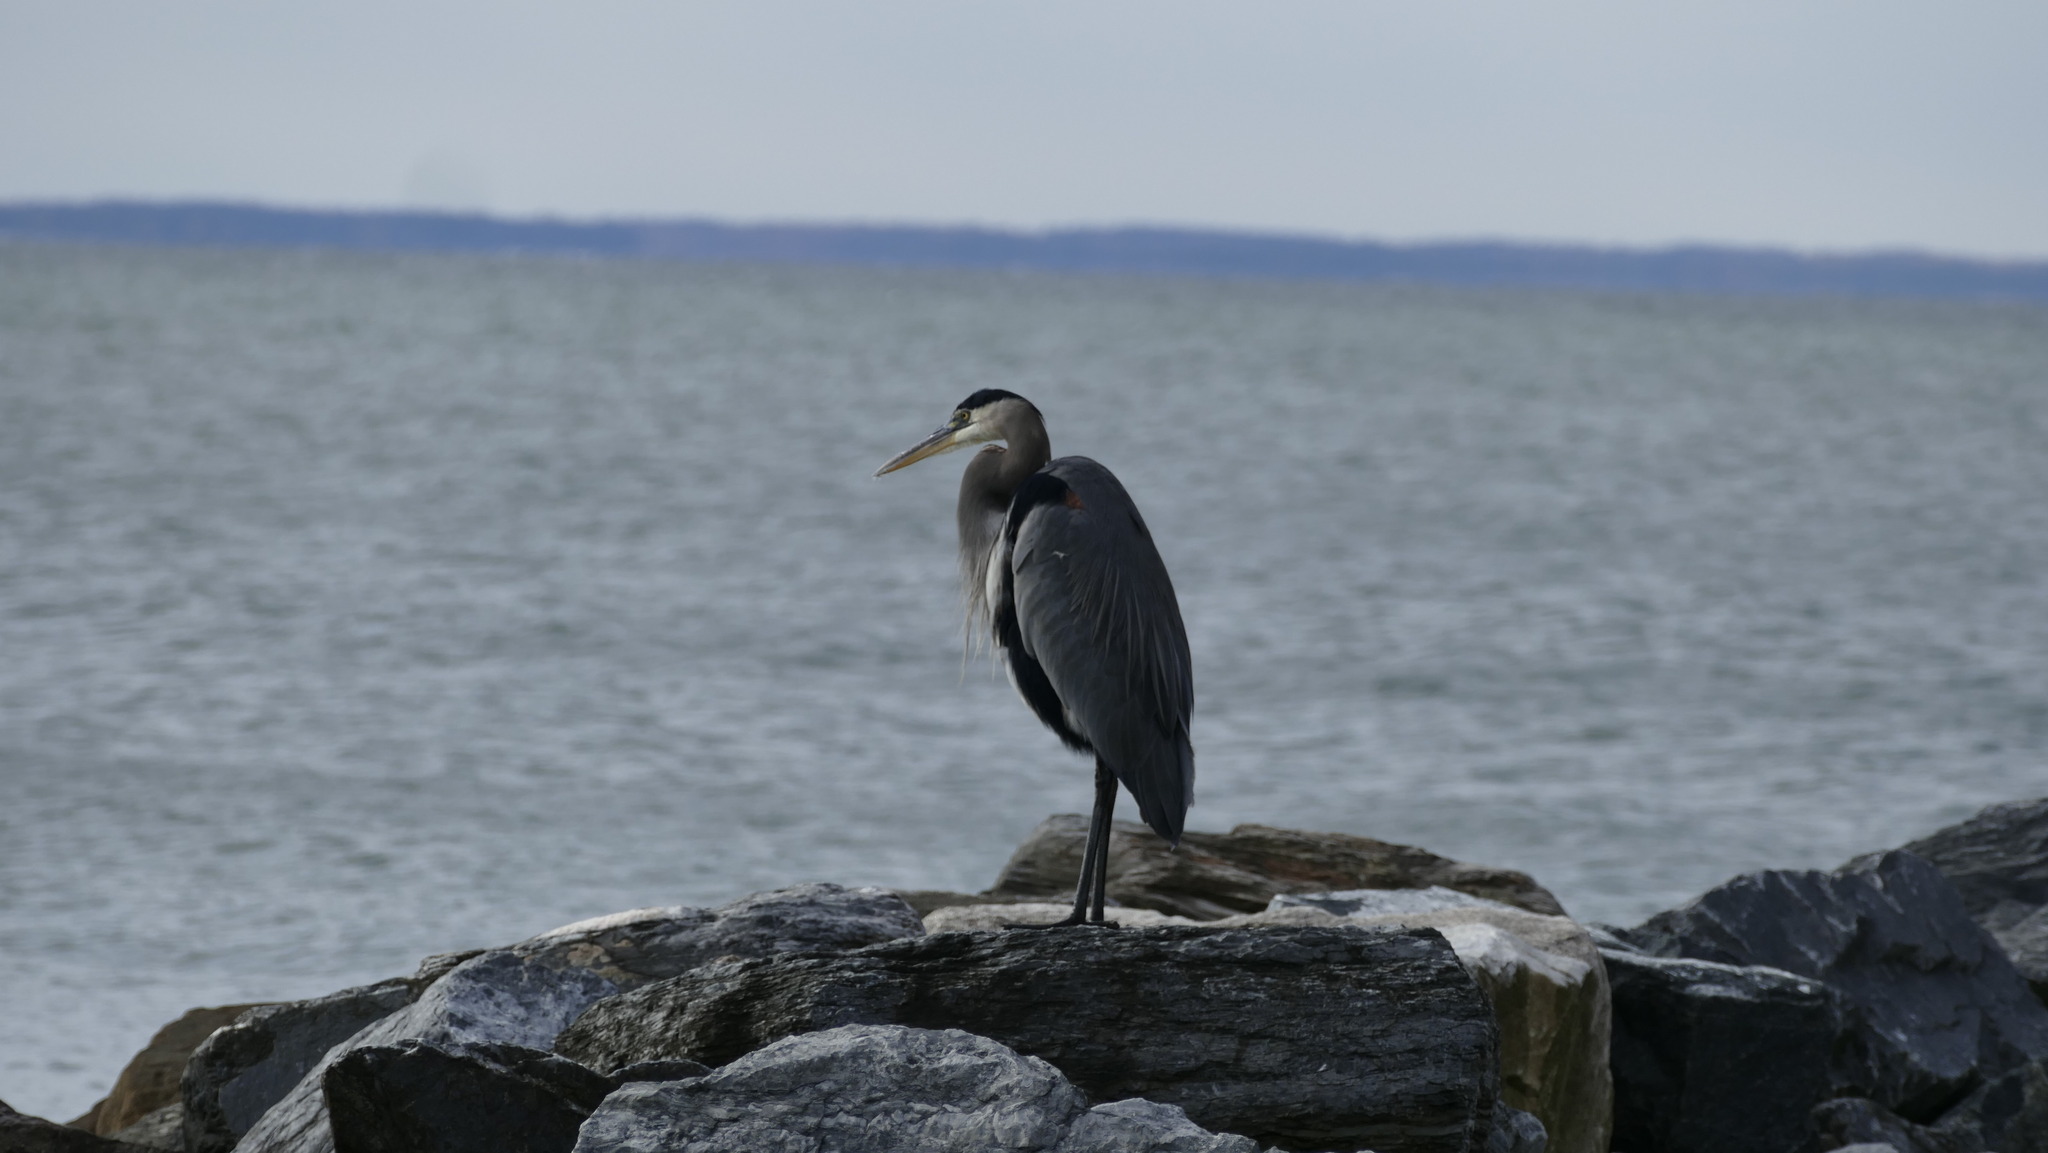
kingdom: Animalia
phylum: Chordata
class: Aves
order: Pelecaniformes
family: Ardeidae
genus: Ardea
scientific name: Ardea herodias
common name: Great blue heron
